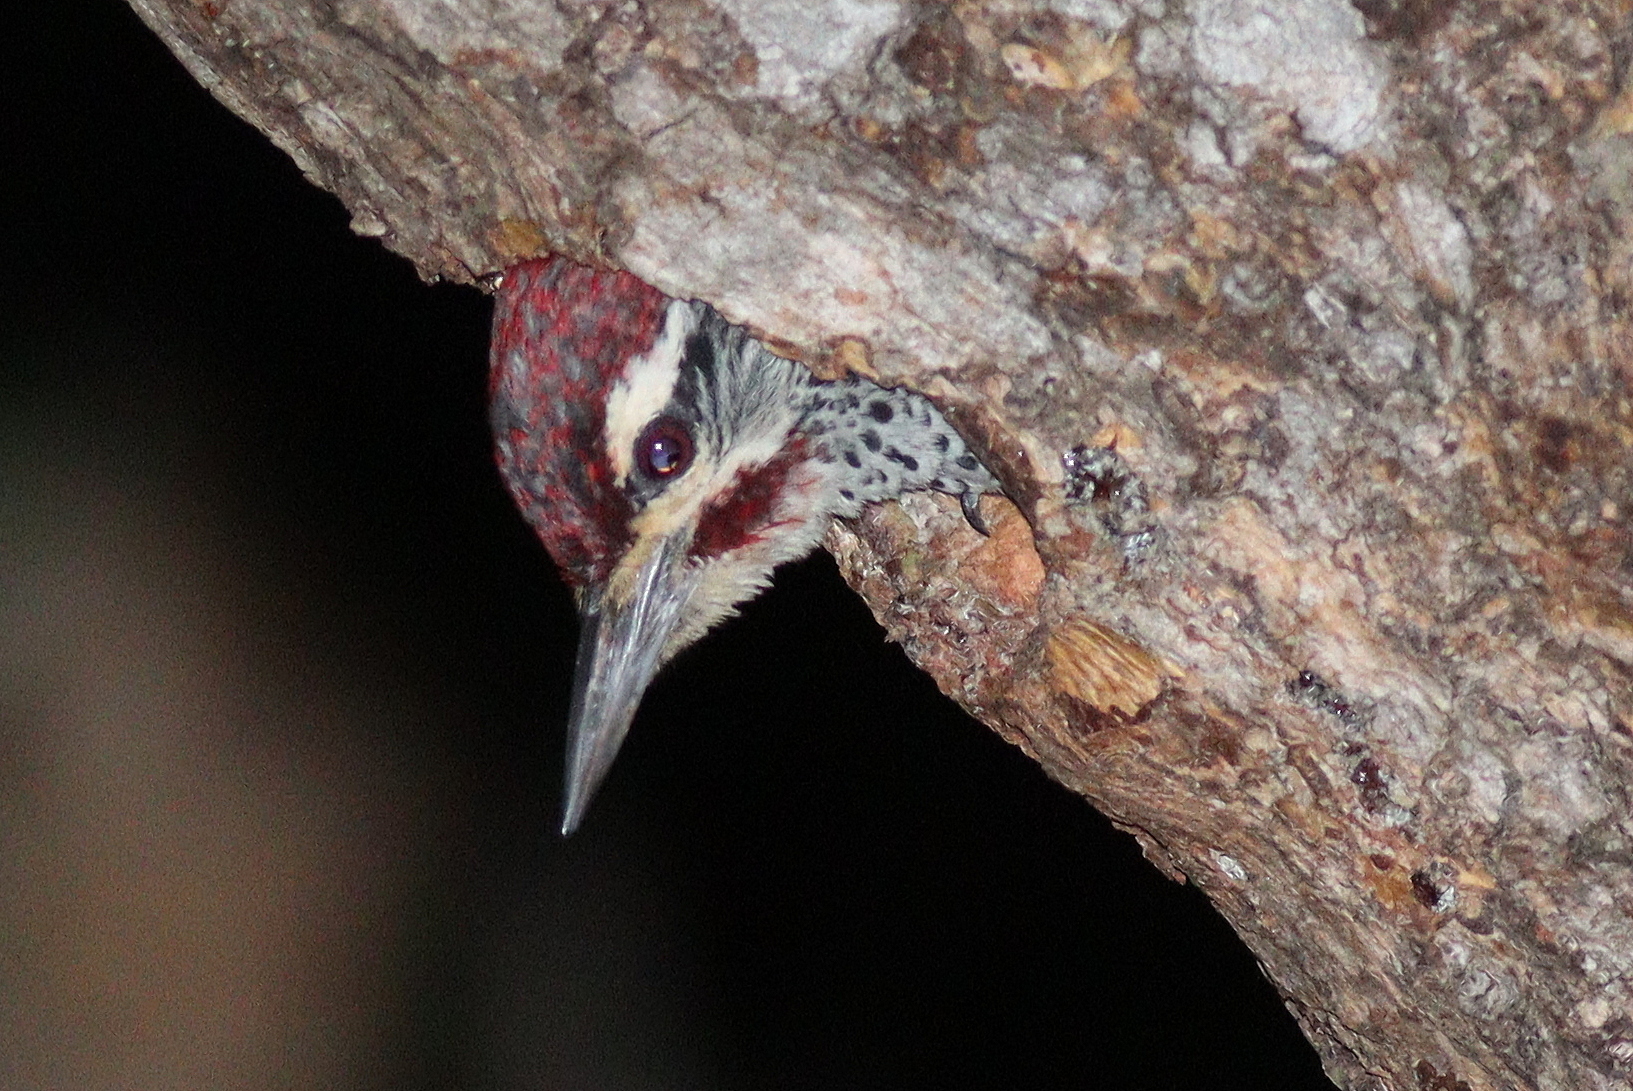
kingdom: Animalia
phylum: Chordata
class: Aves
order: Piciformes
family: Picidae
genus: Campethera
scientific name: Campethera nubica
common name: Nubian woodpecker
